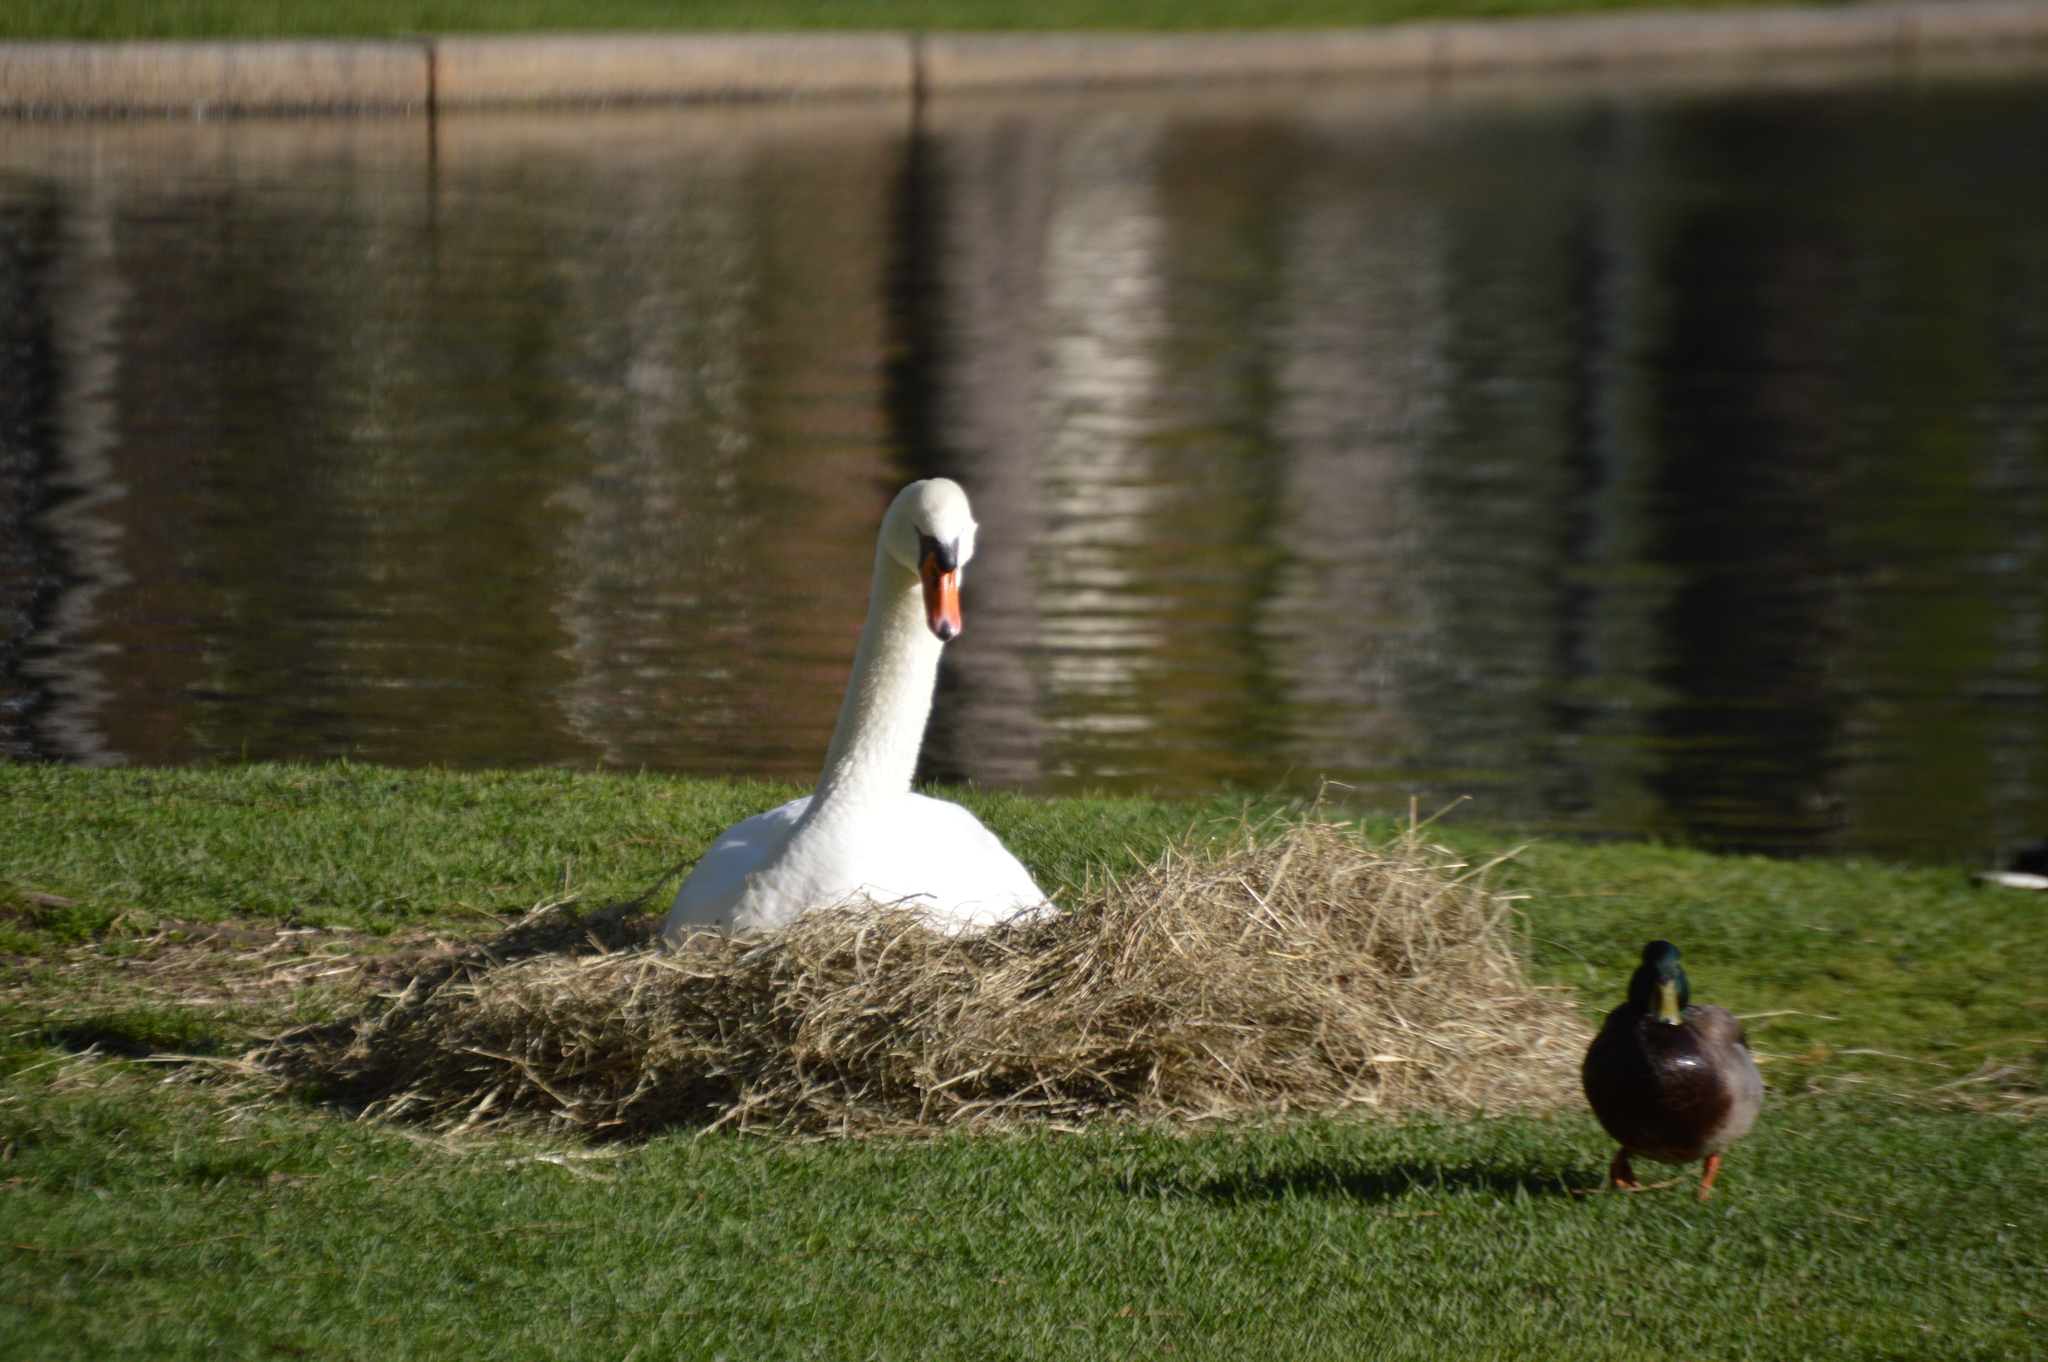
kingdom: Animalia
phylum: Chordata
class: Aves
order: Anseriformes
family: Anatidae
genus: Cygnus
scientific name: Cygnus olor
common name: Mute swan
